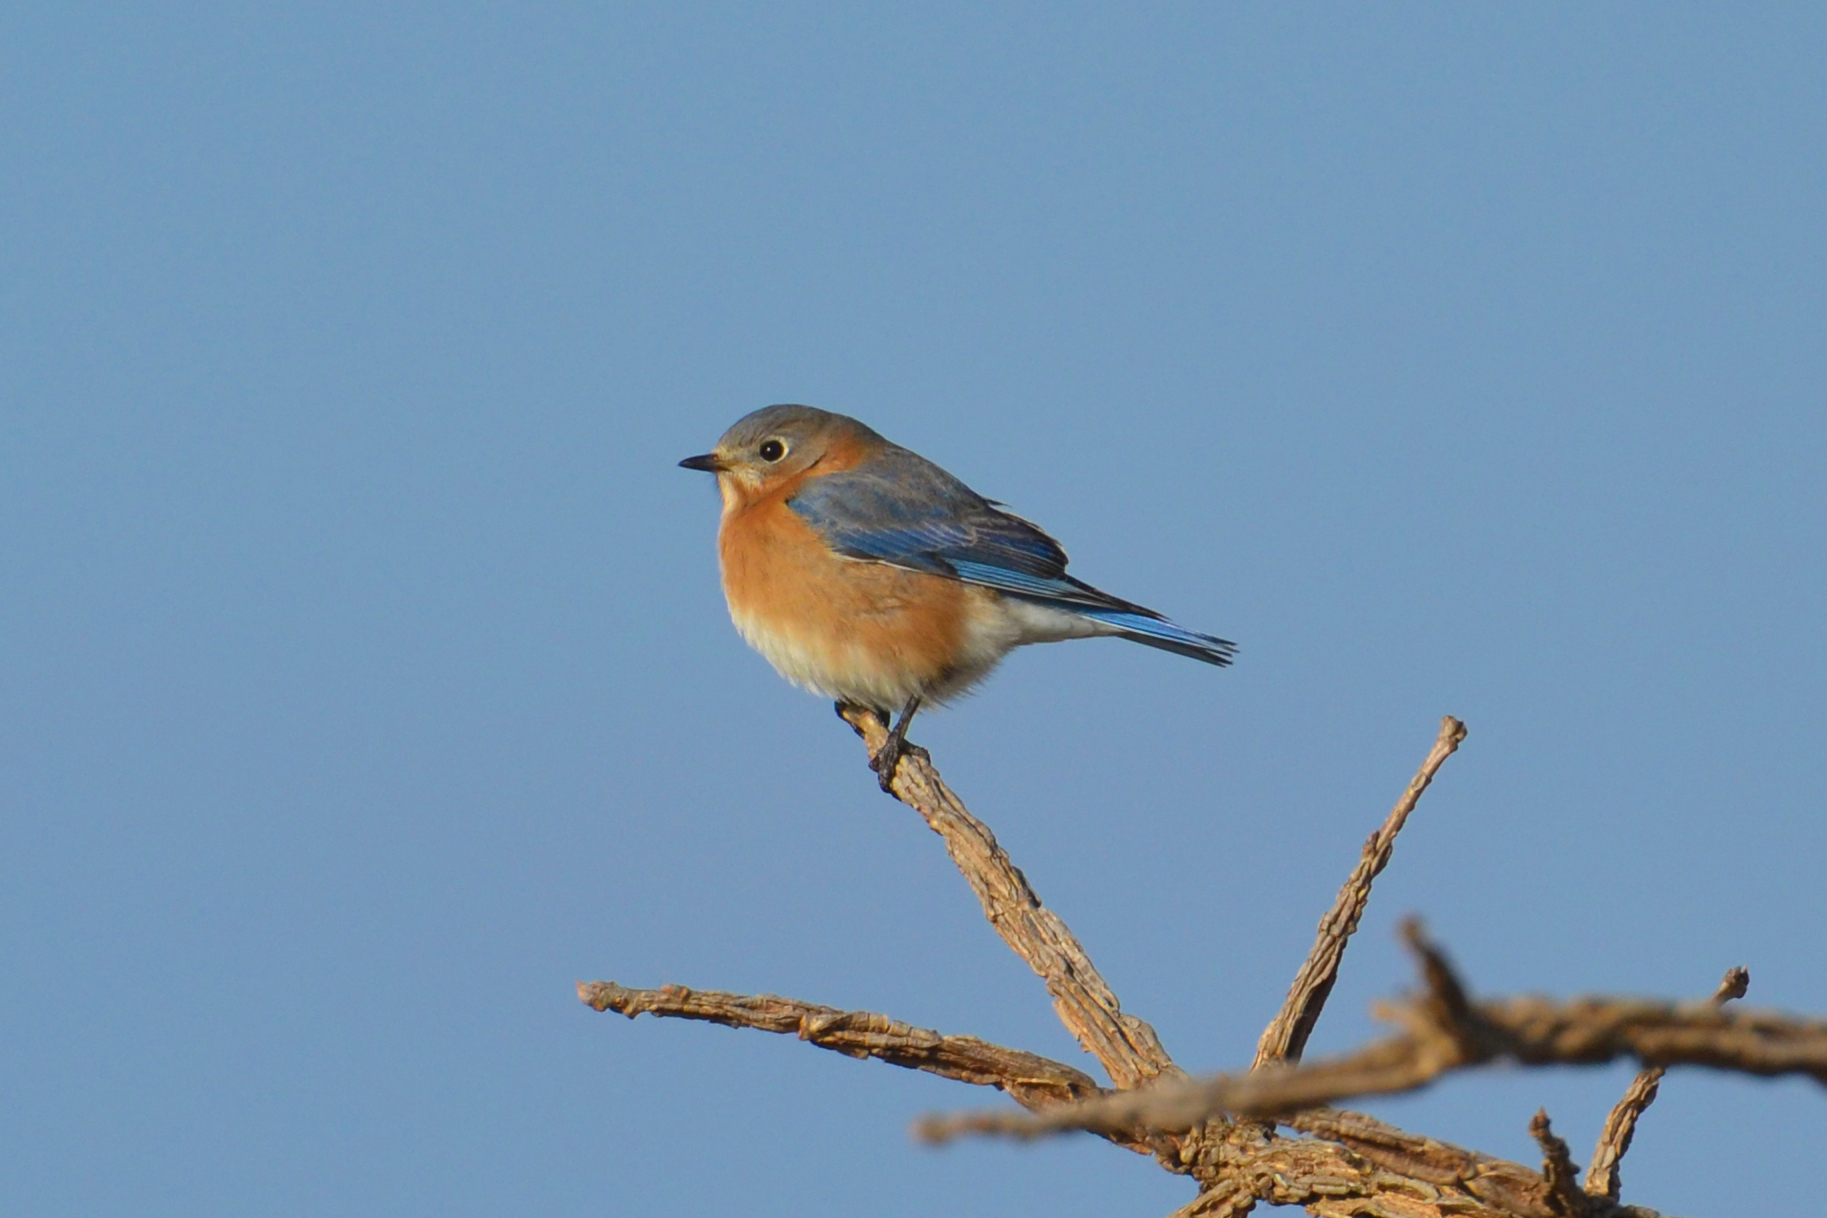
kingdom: Animalia
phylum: Chordata
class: Aves
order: Passeriformes
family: Turdidae
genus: Sialia
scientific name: Sialia sialis
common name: Eastern bluebird
